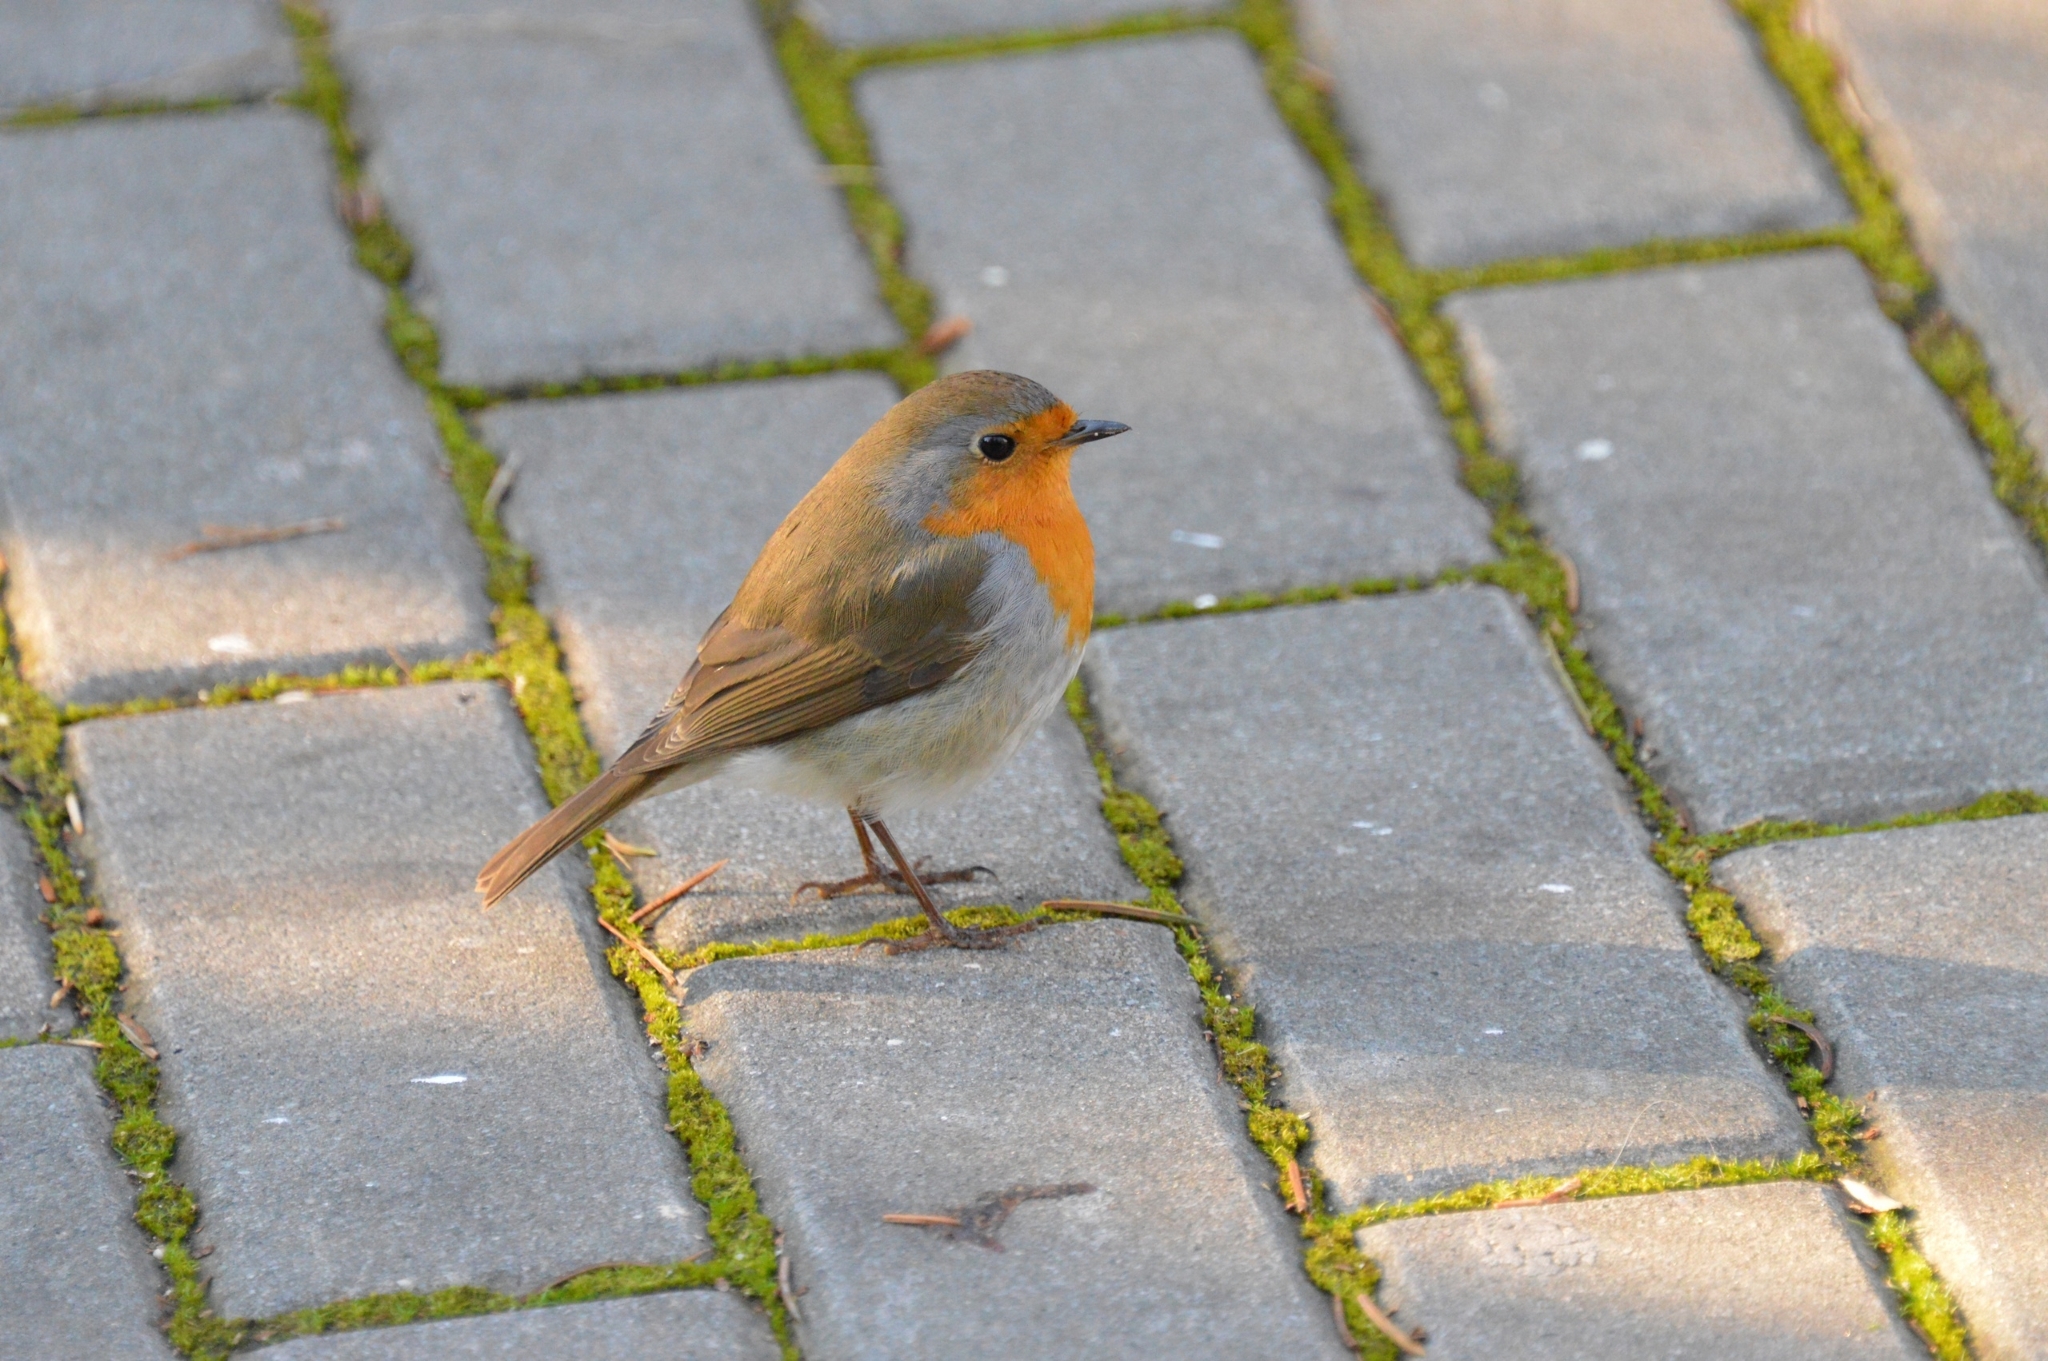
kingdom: Animalia
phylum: Chordata
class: Aves
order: Passeriformes
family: Muscicapidae
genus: Erithacus
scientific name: Erithacus rubecula
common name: European robin
